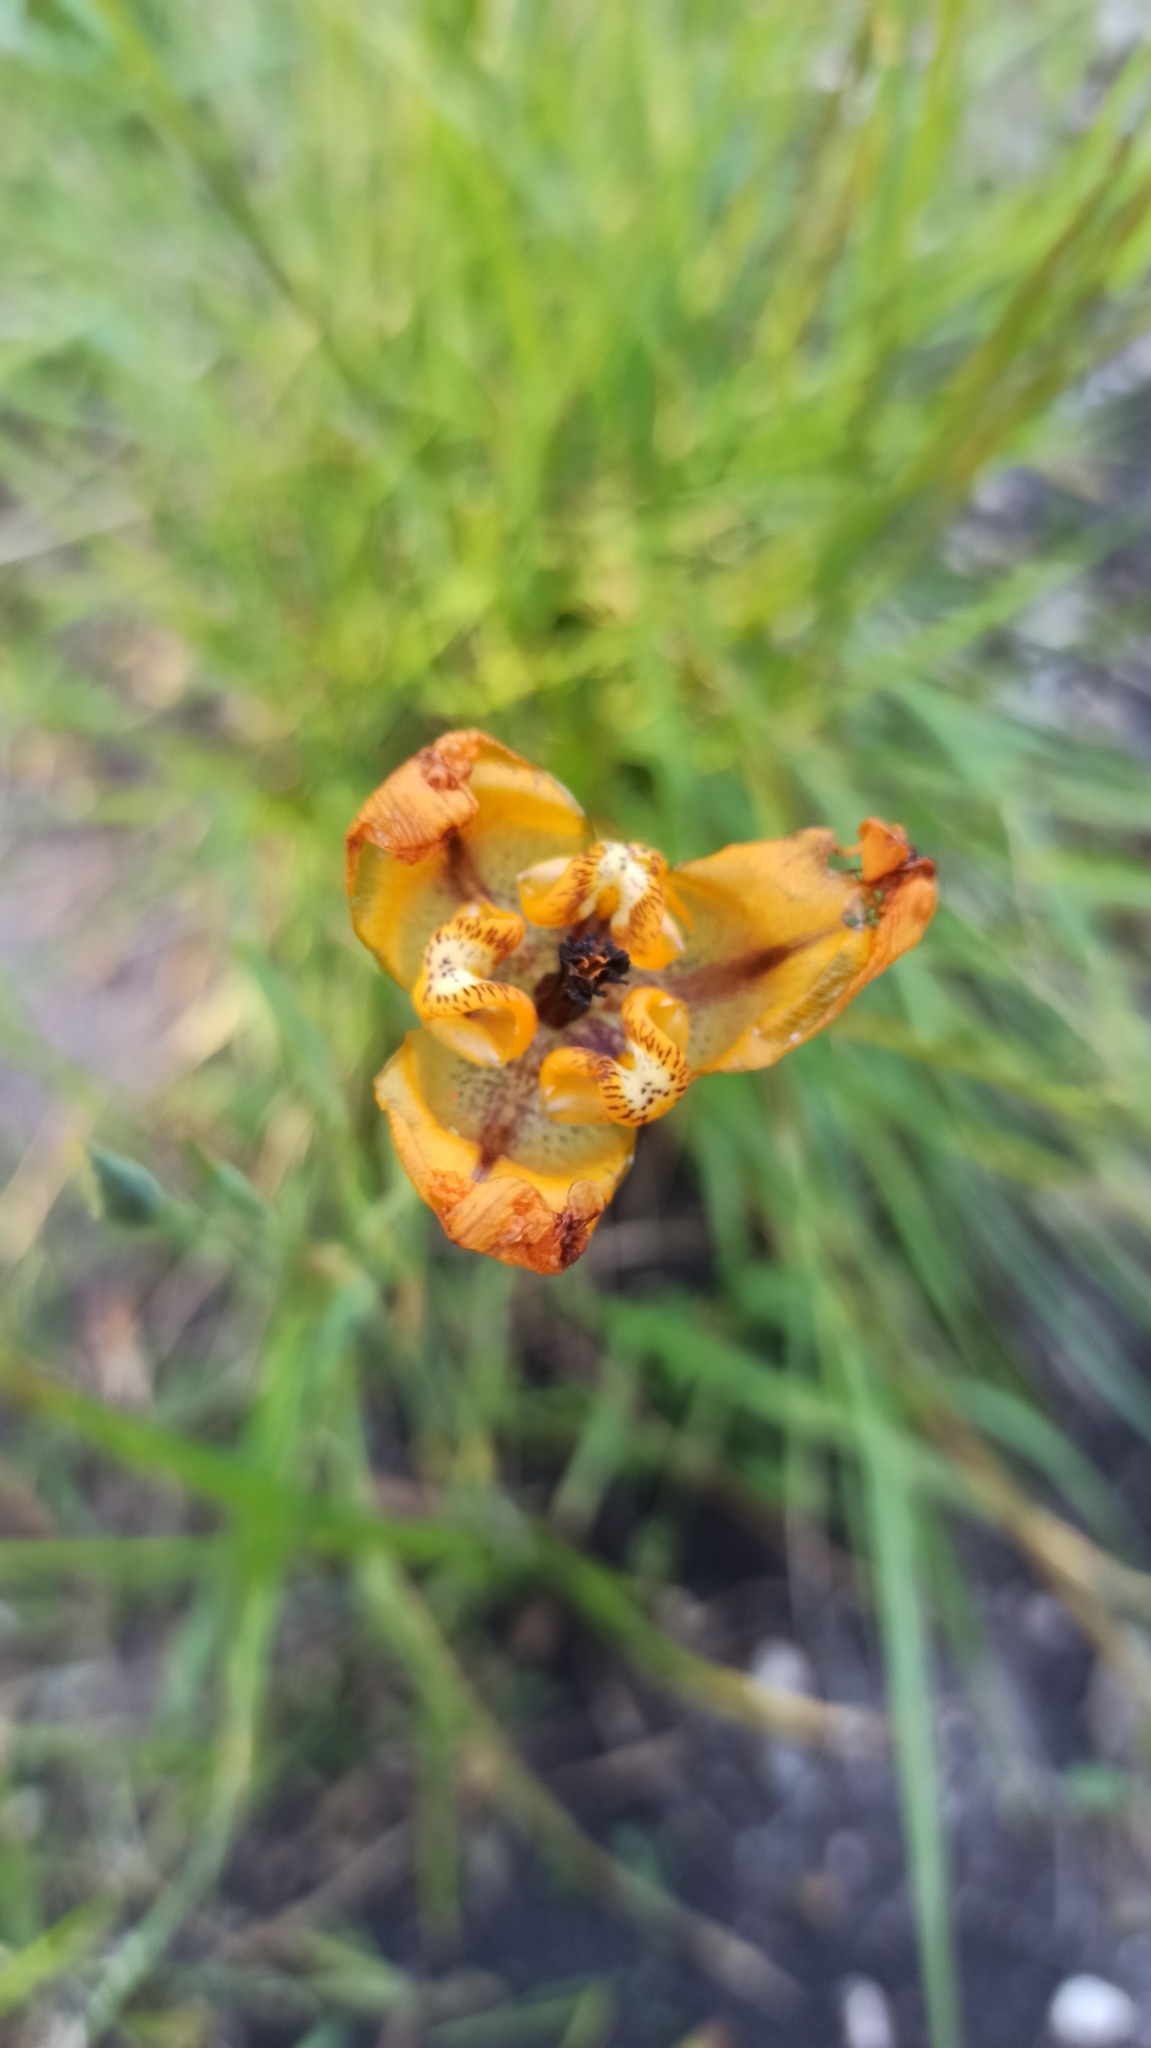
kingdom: Plantae
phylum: Tracheophyta
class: Liliopsida
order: Asparagales
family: Iridaceae
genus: Cypella
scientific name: Cypella herbertii
